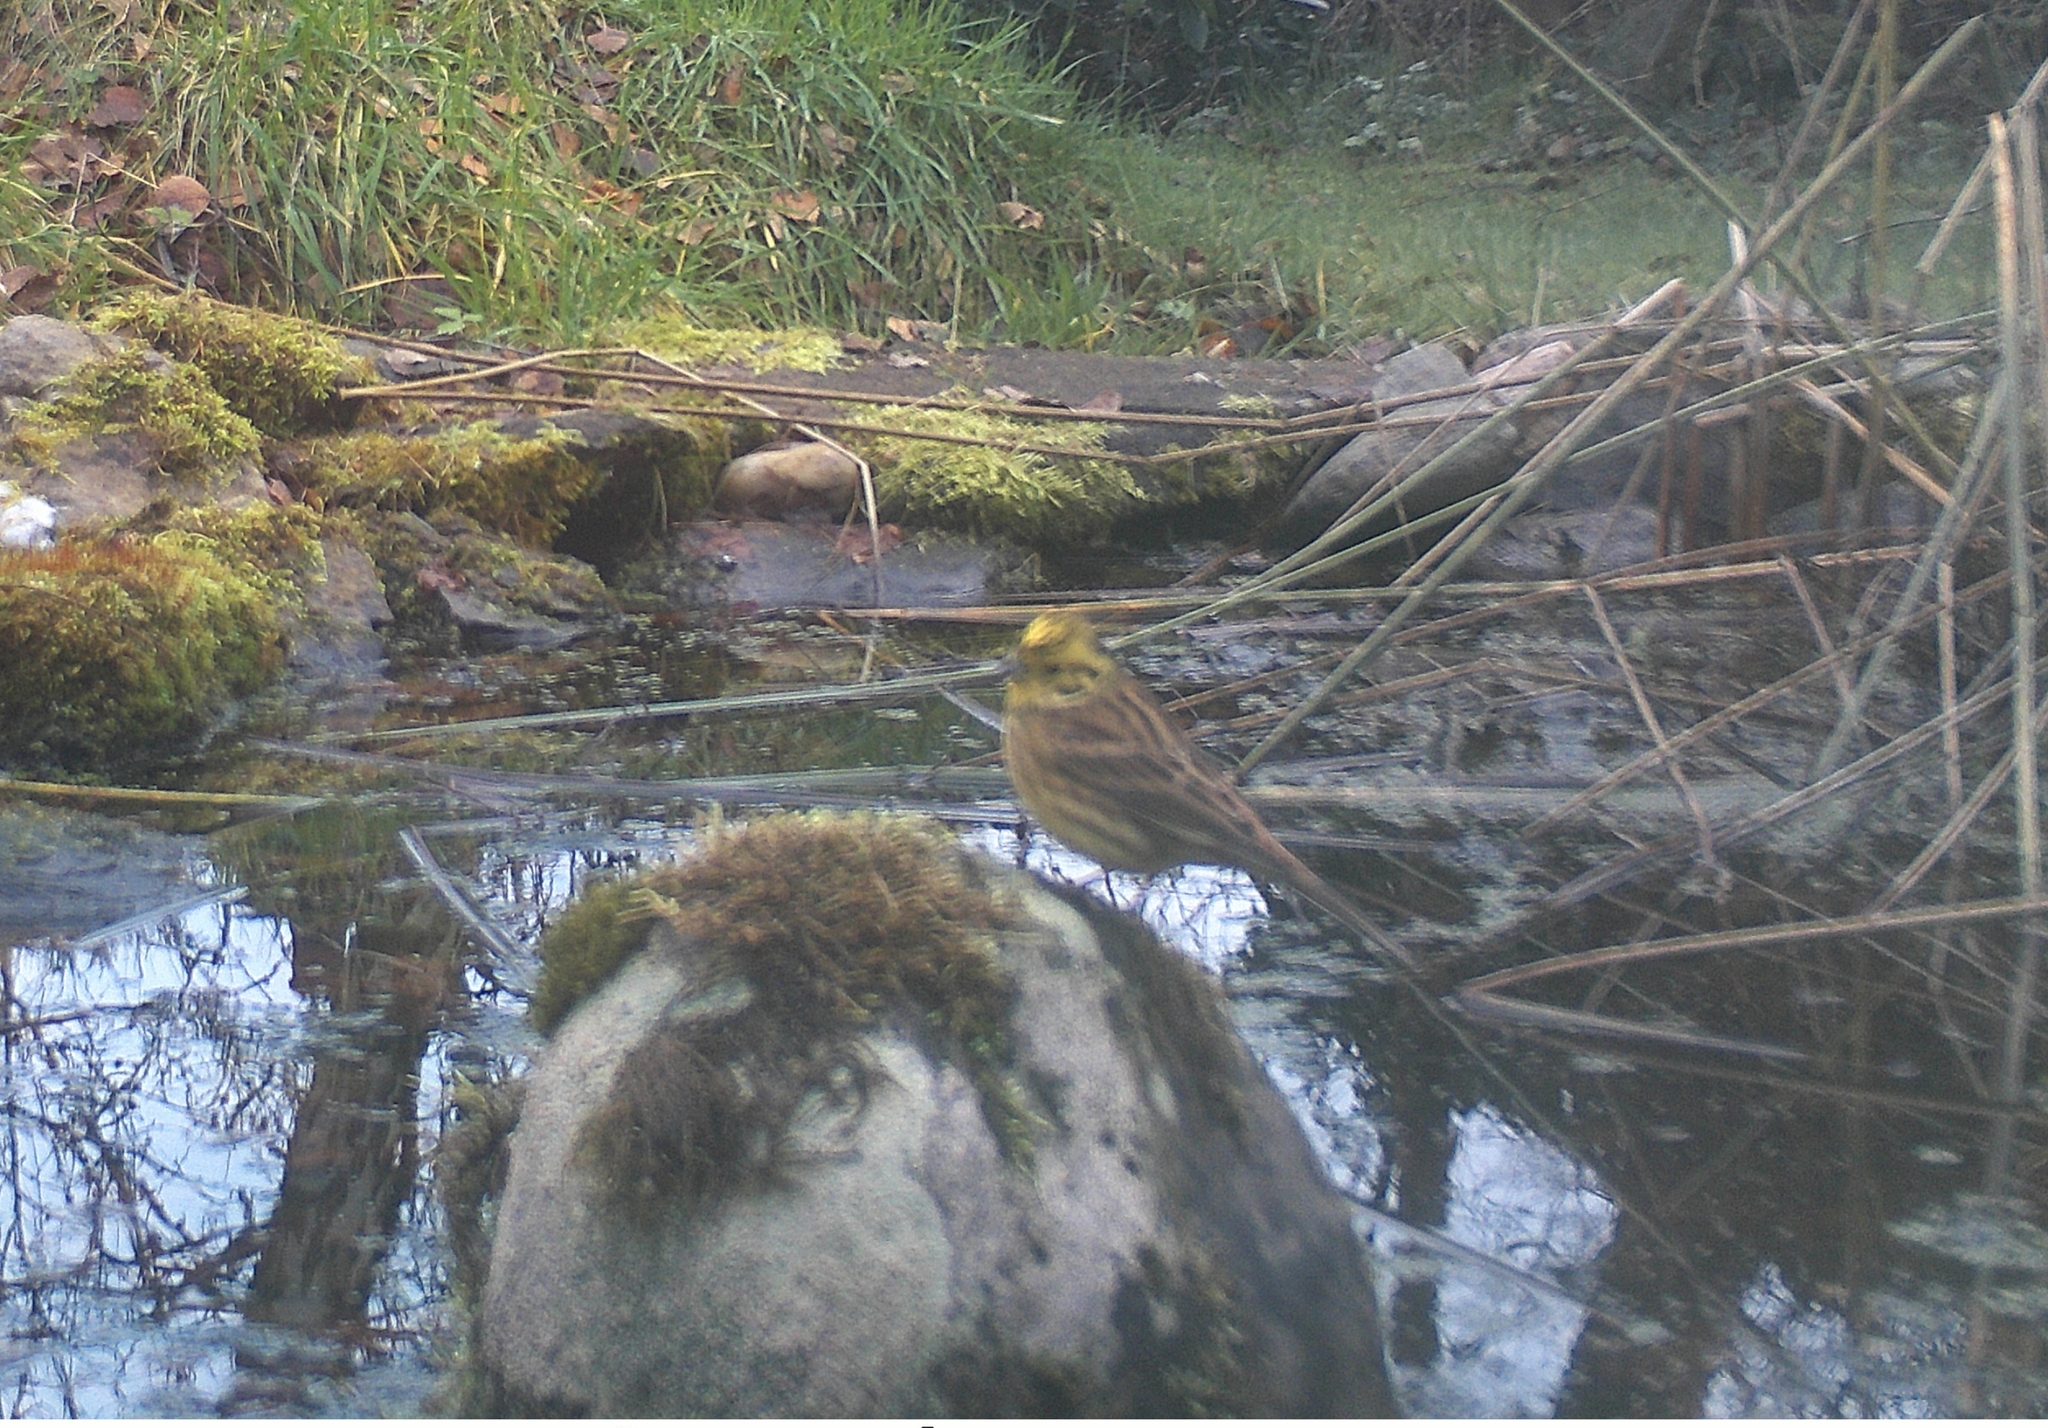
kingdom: Animalia
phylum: Chordata
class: Aves
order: Passeriformes
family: Emberizidae
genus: Emberiza
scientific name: Emberiza citrinella
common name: Yellowhammer
